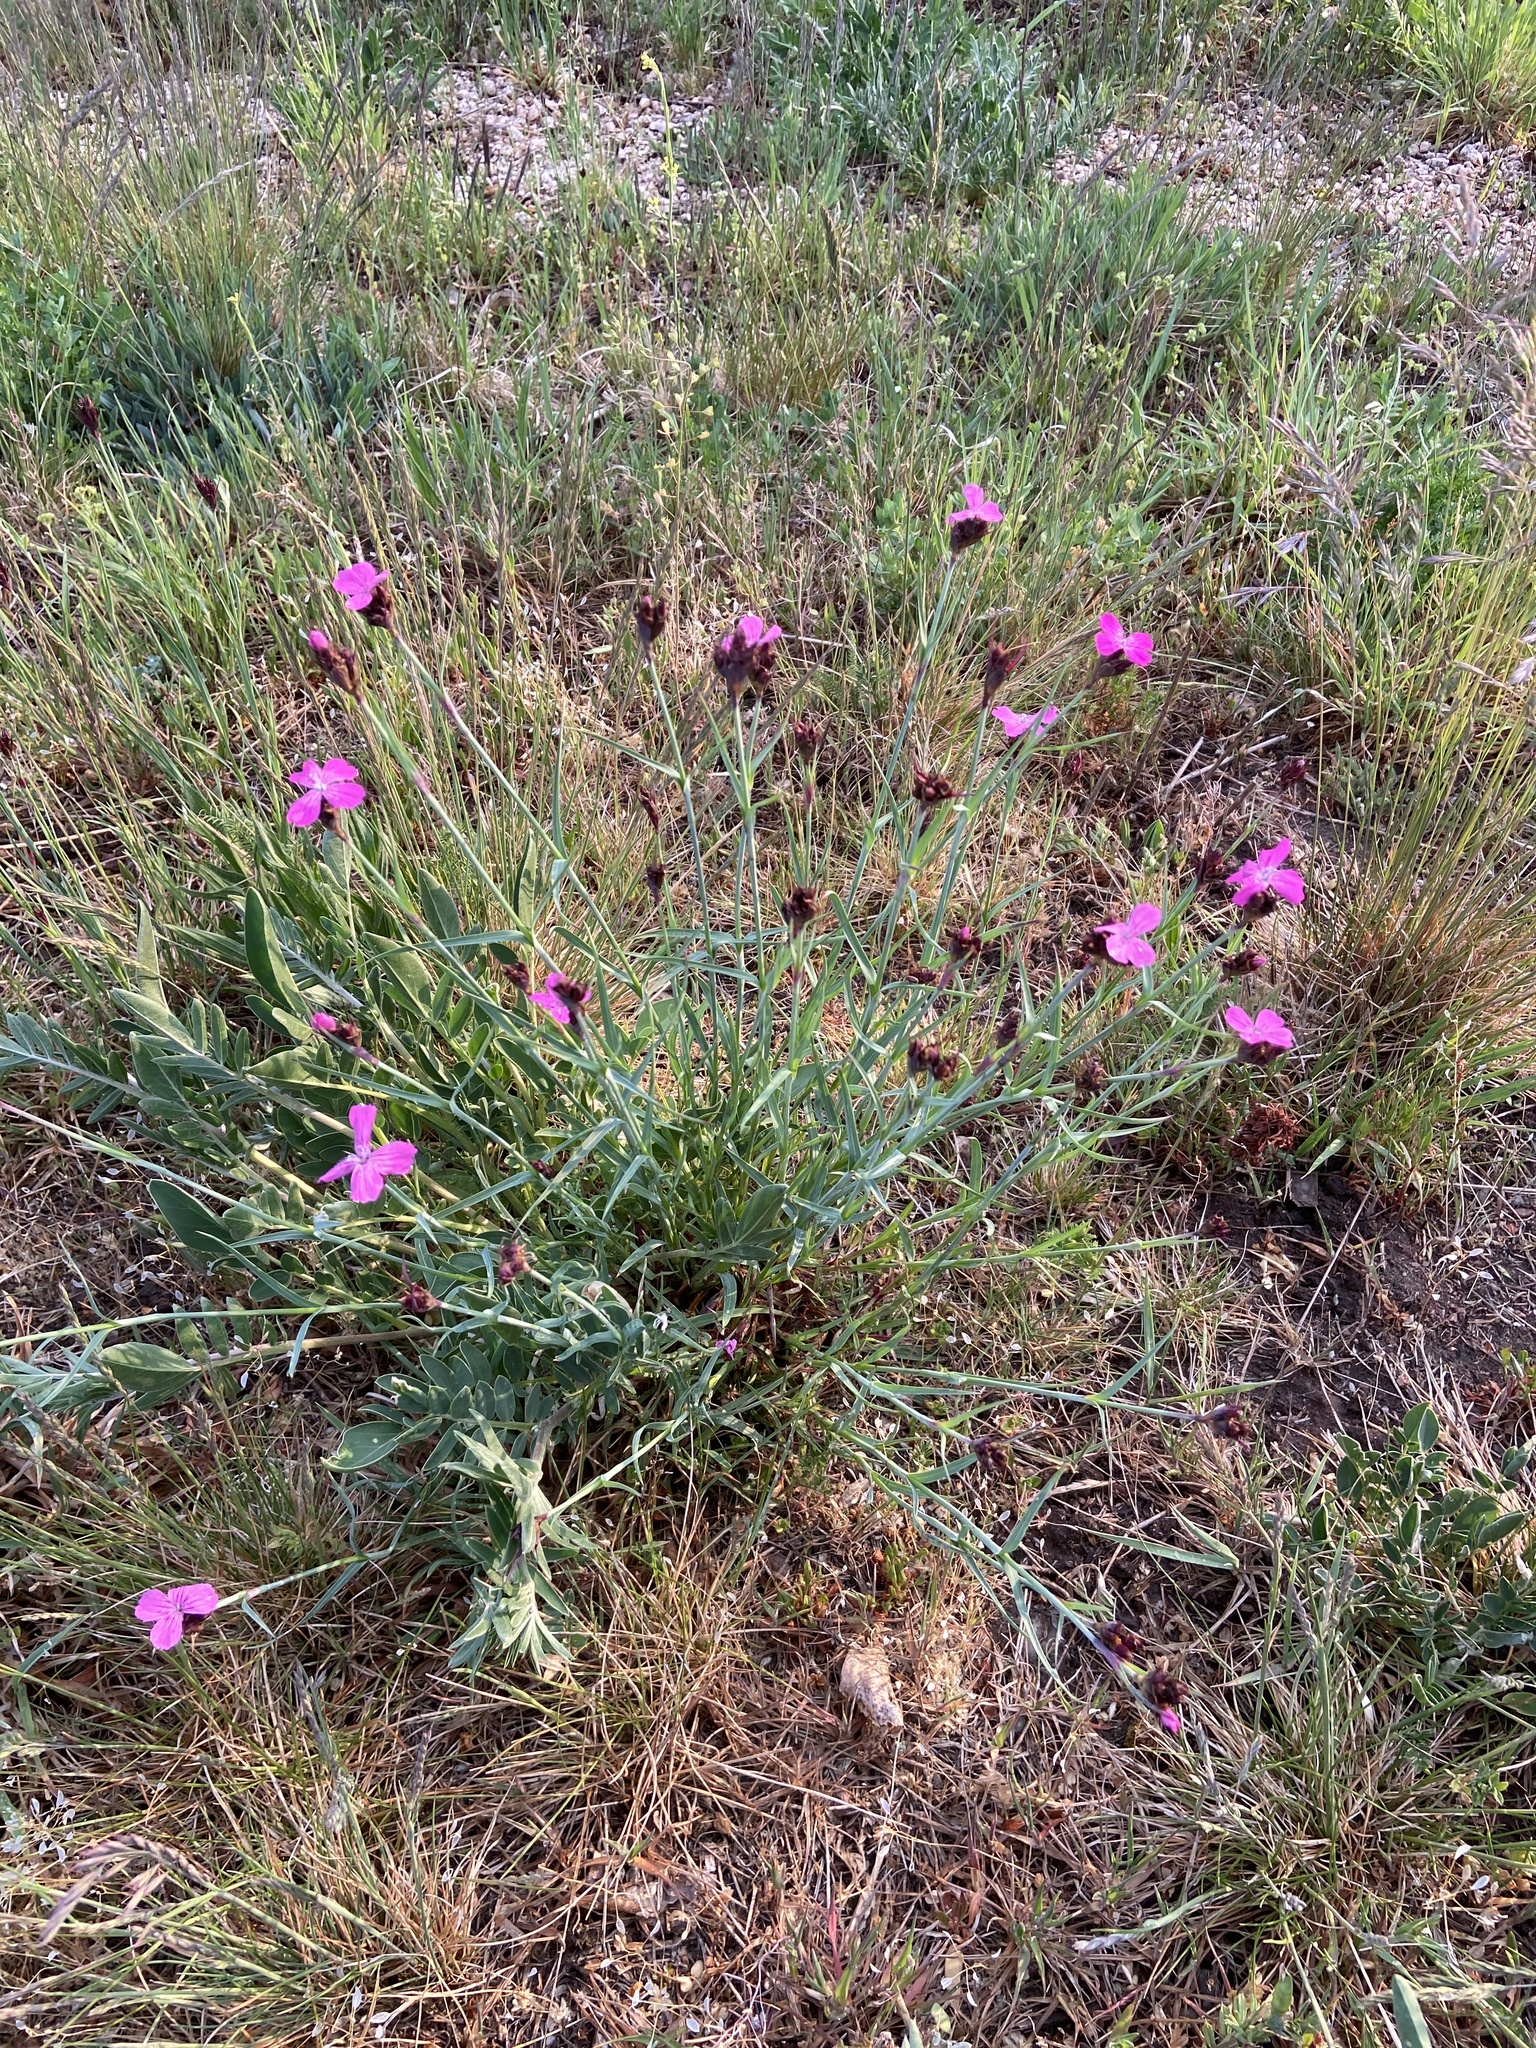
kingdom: Plantae
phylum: Tracheophyta
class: Magnoliopsida
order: Caryophyllales
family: Caryophyllaceae
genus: Dianthus
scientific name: Dianthus carthusianorum
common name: Carthusian pink
